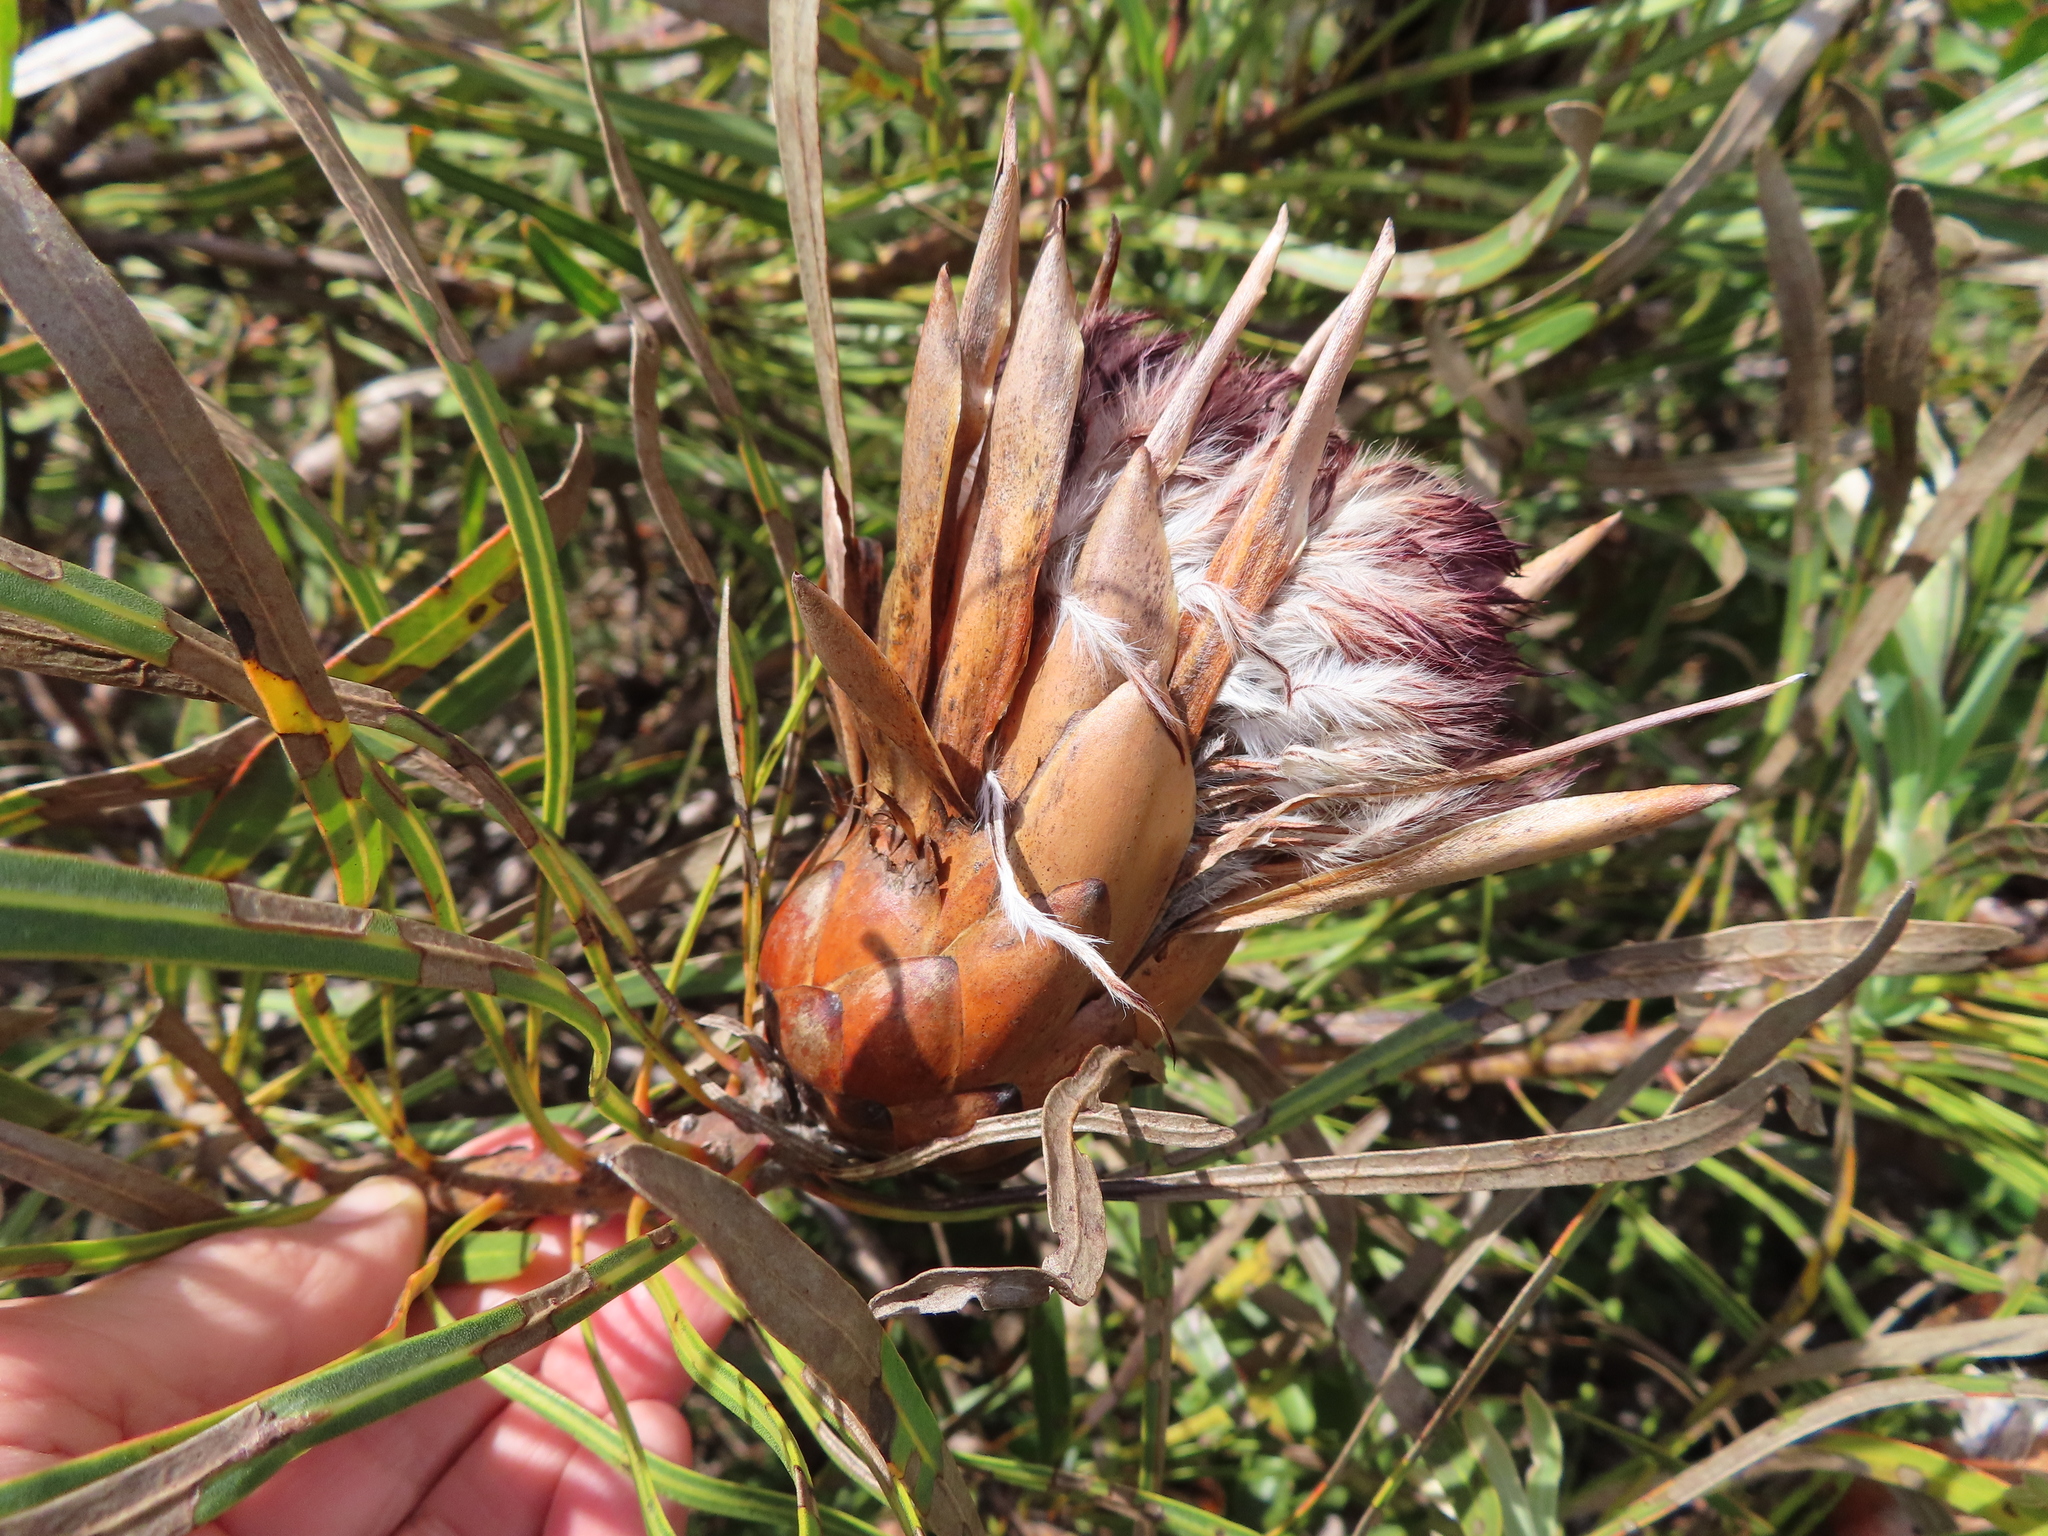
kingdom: Plantae
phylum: Tracheophyta
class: Magnoliopsida
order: Proteales
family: Proteaceae
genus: Protea
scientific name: Protea longifolia
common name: Long-leaf sugarbush
